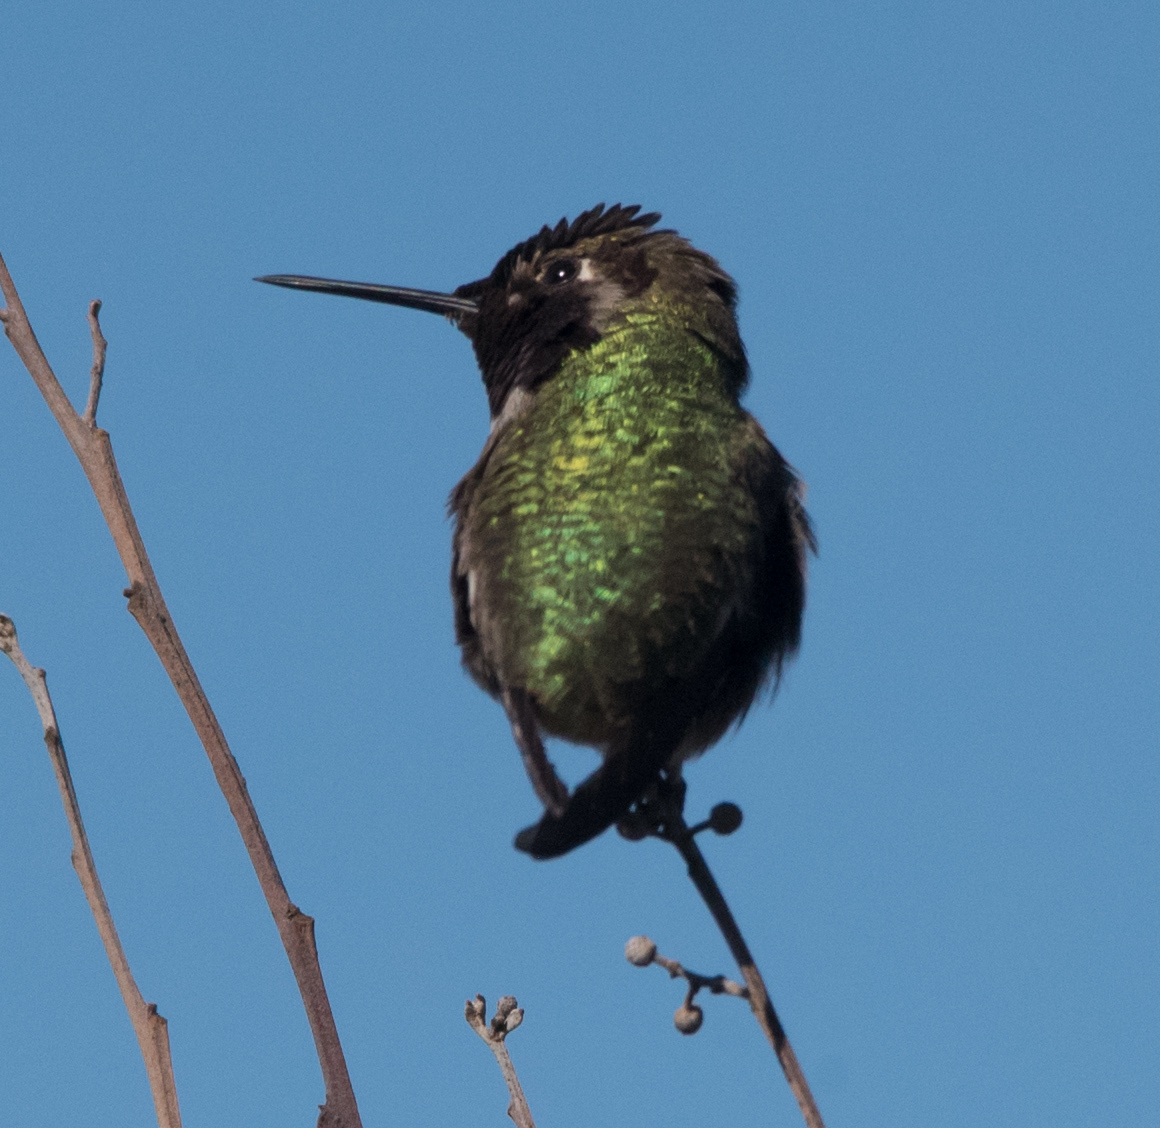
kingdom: Animalia
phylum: Chordata
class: Aves
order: Apodiformes
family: Trochilidae
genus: Calypte
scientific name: Calypte anna
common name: Anna's hummingbird
